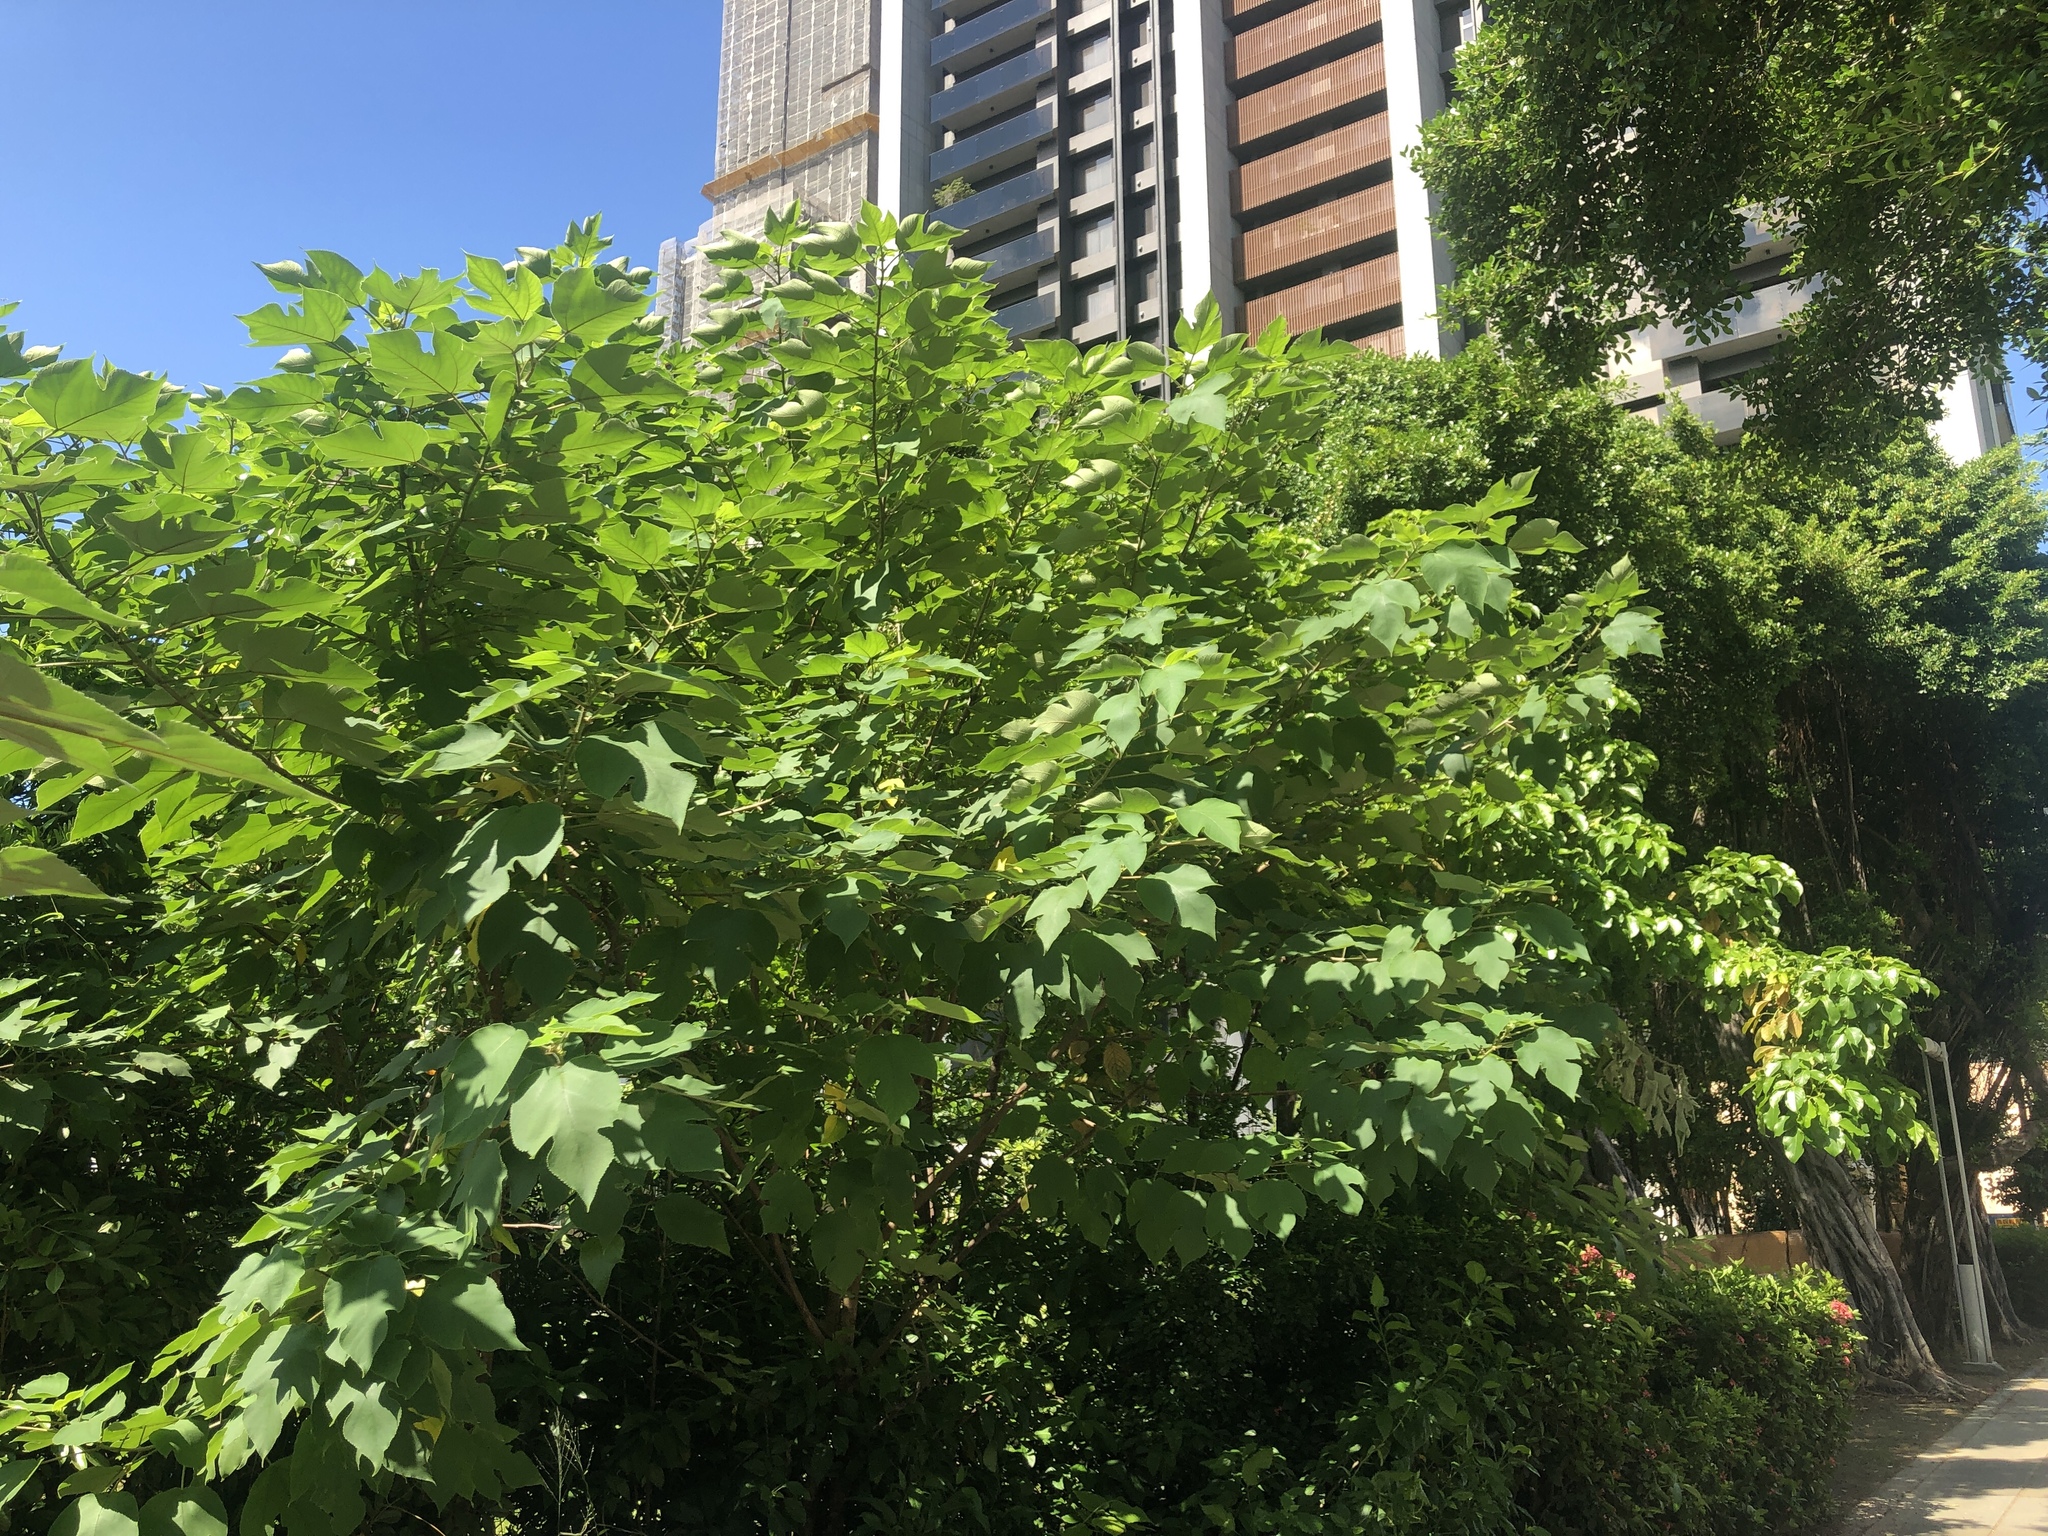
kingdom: Plantae
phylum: Tracheophyta
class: Magnoliopsida
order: Rosales
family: Moraceae
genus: Broussonetia
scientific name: Broussonetia papyrifera
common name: Paper mulberry
